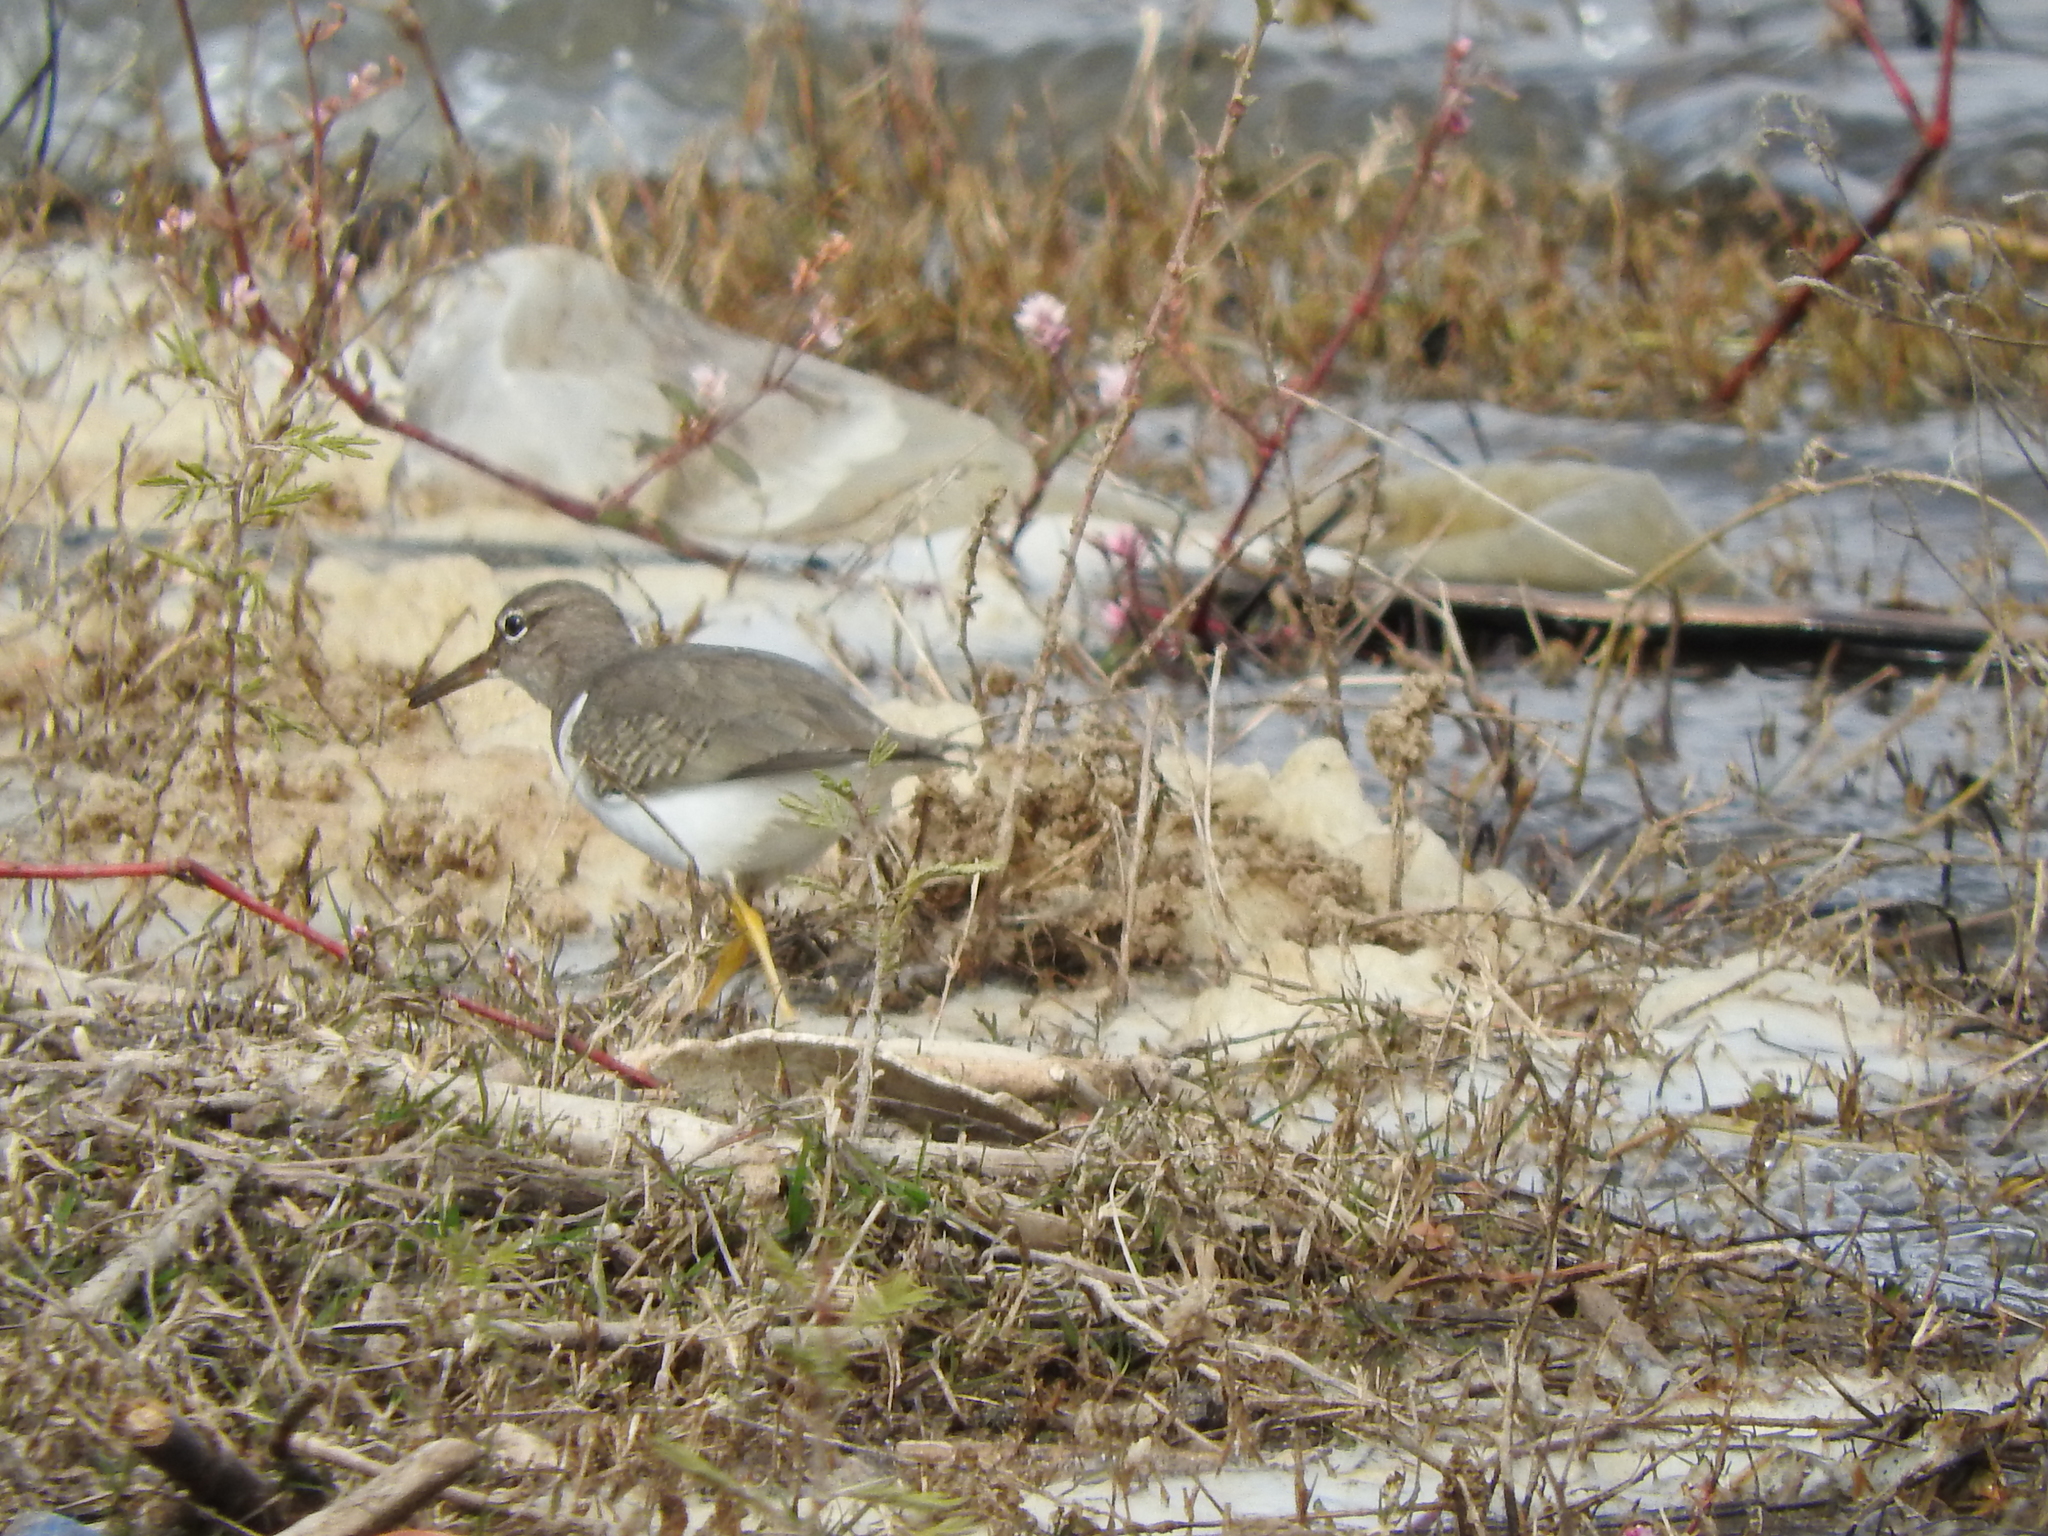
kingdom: Animalia
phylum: Chordata
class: Aves
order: Charadriiformes
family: Scolopacidae
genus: Actitis
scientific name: Actitis macularius
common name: Spotted sandpiper
